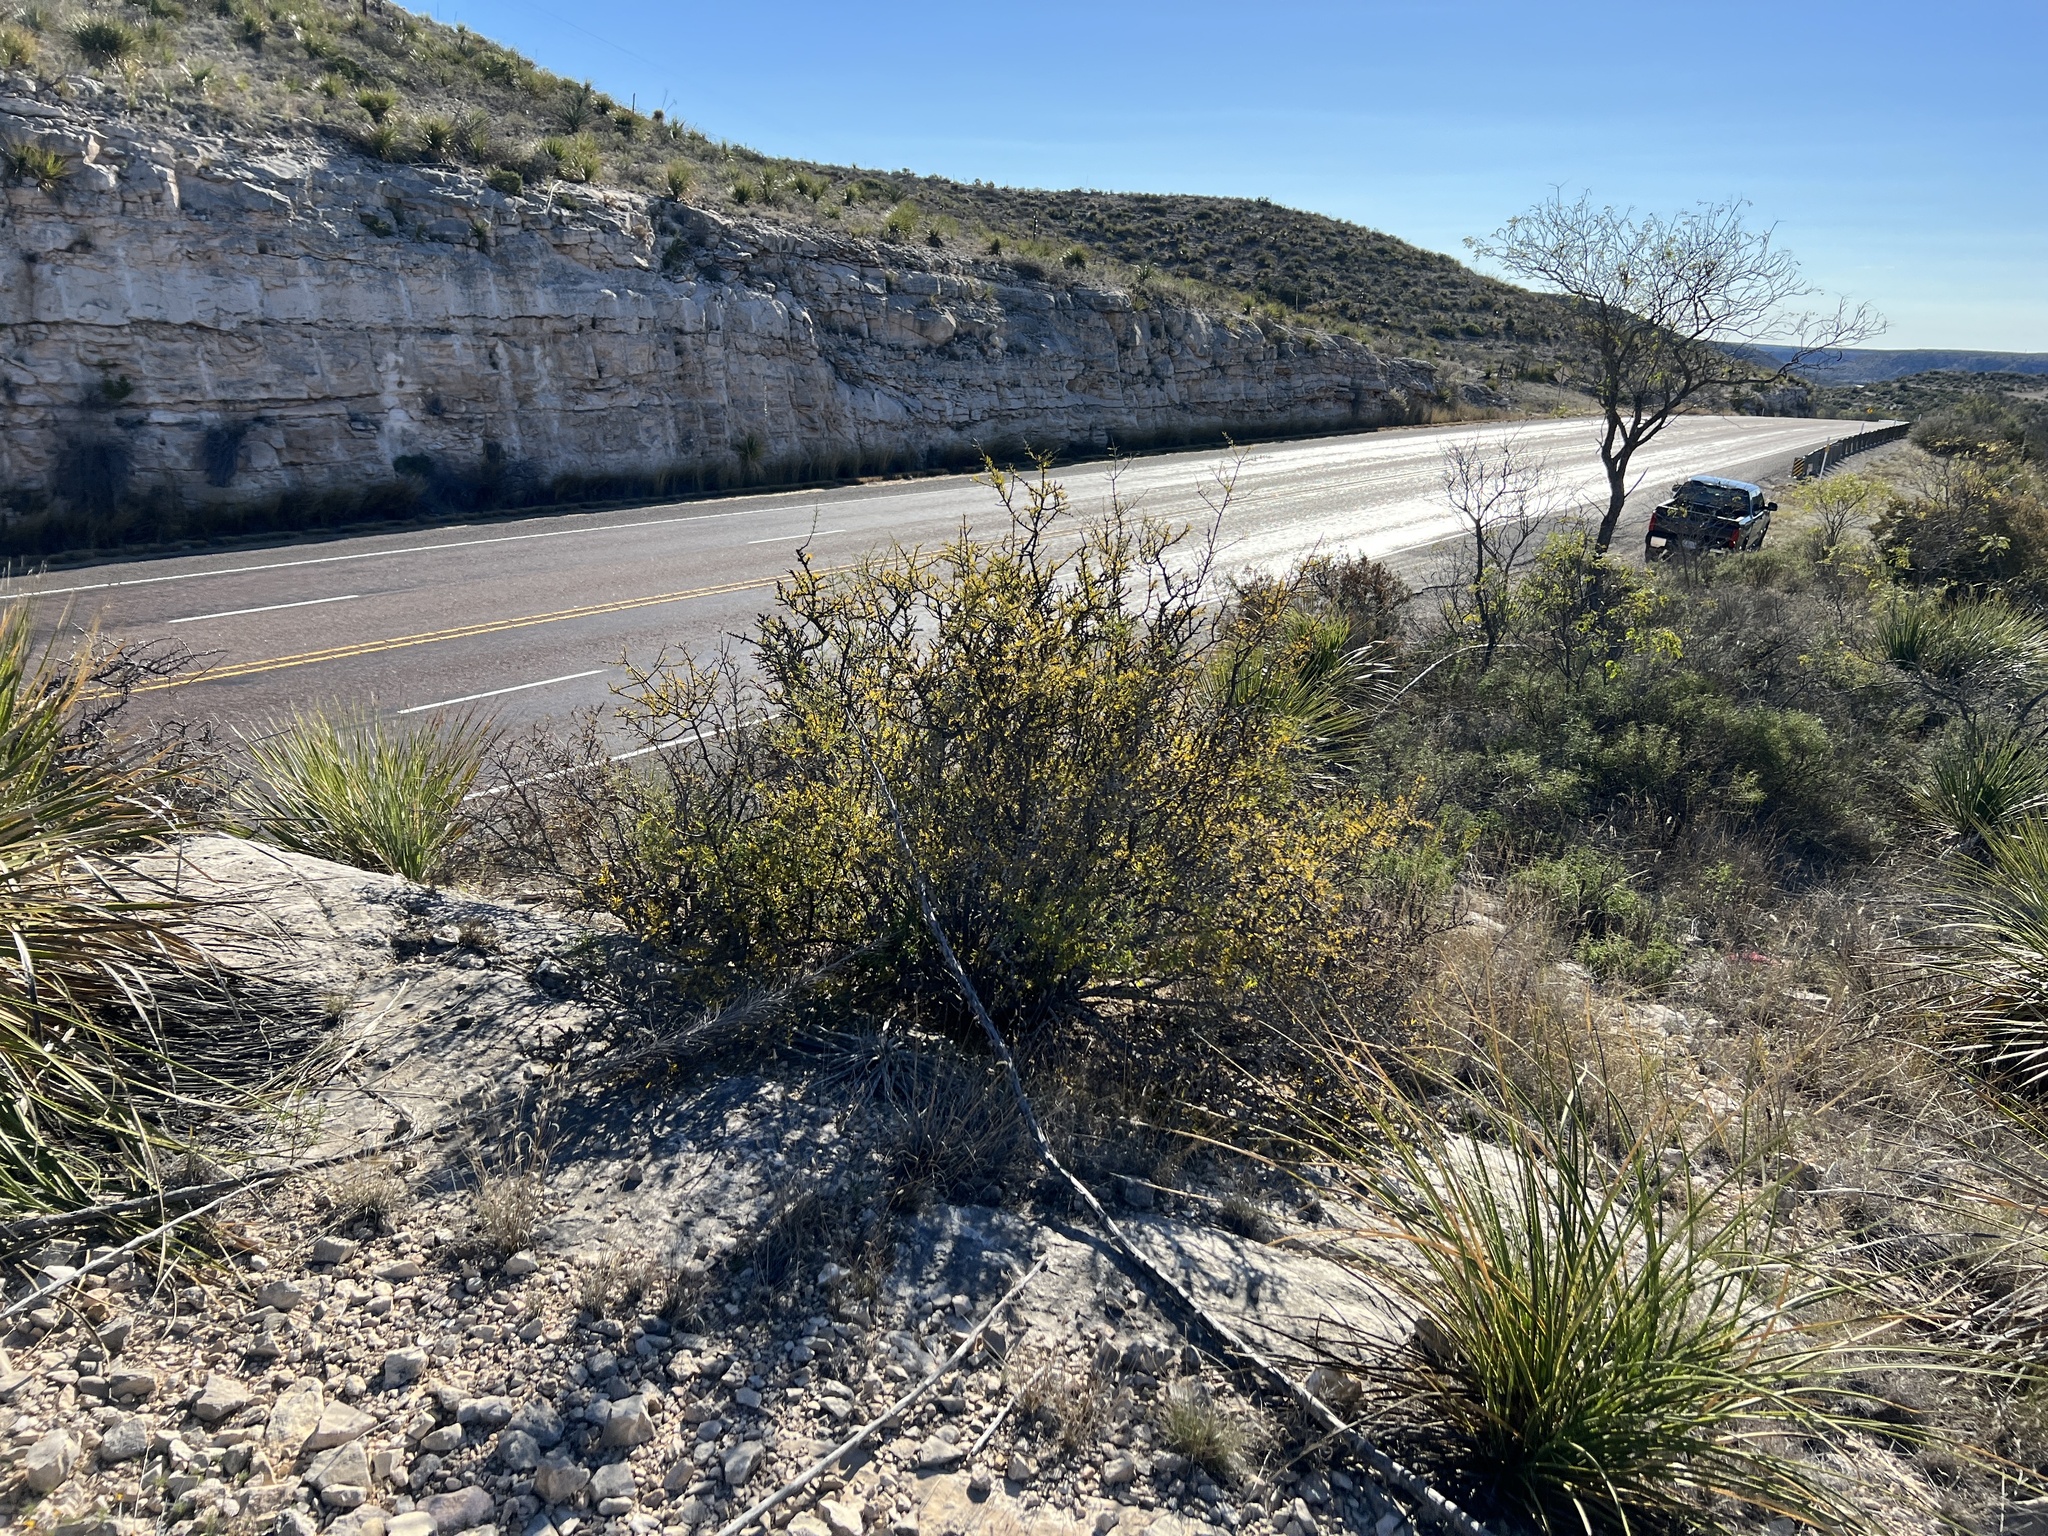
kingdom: Plantae
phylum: Tracheophyta
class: Magnoliopsida
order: Lamiales
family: Oleaceae
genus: Forestiera
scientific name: Forestiera angustifolia
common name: Elbowbush
